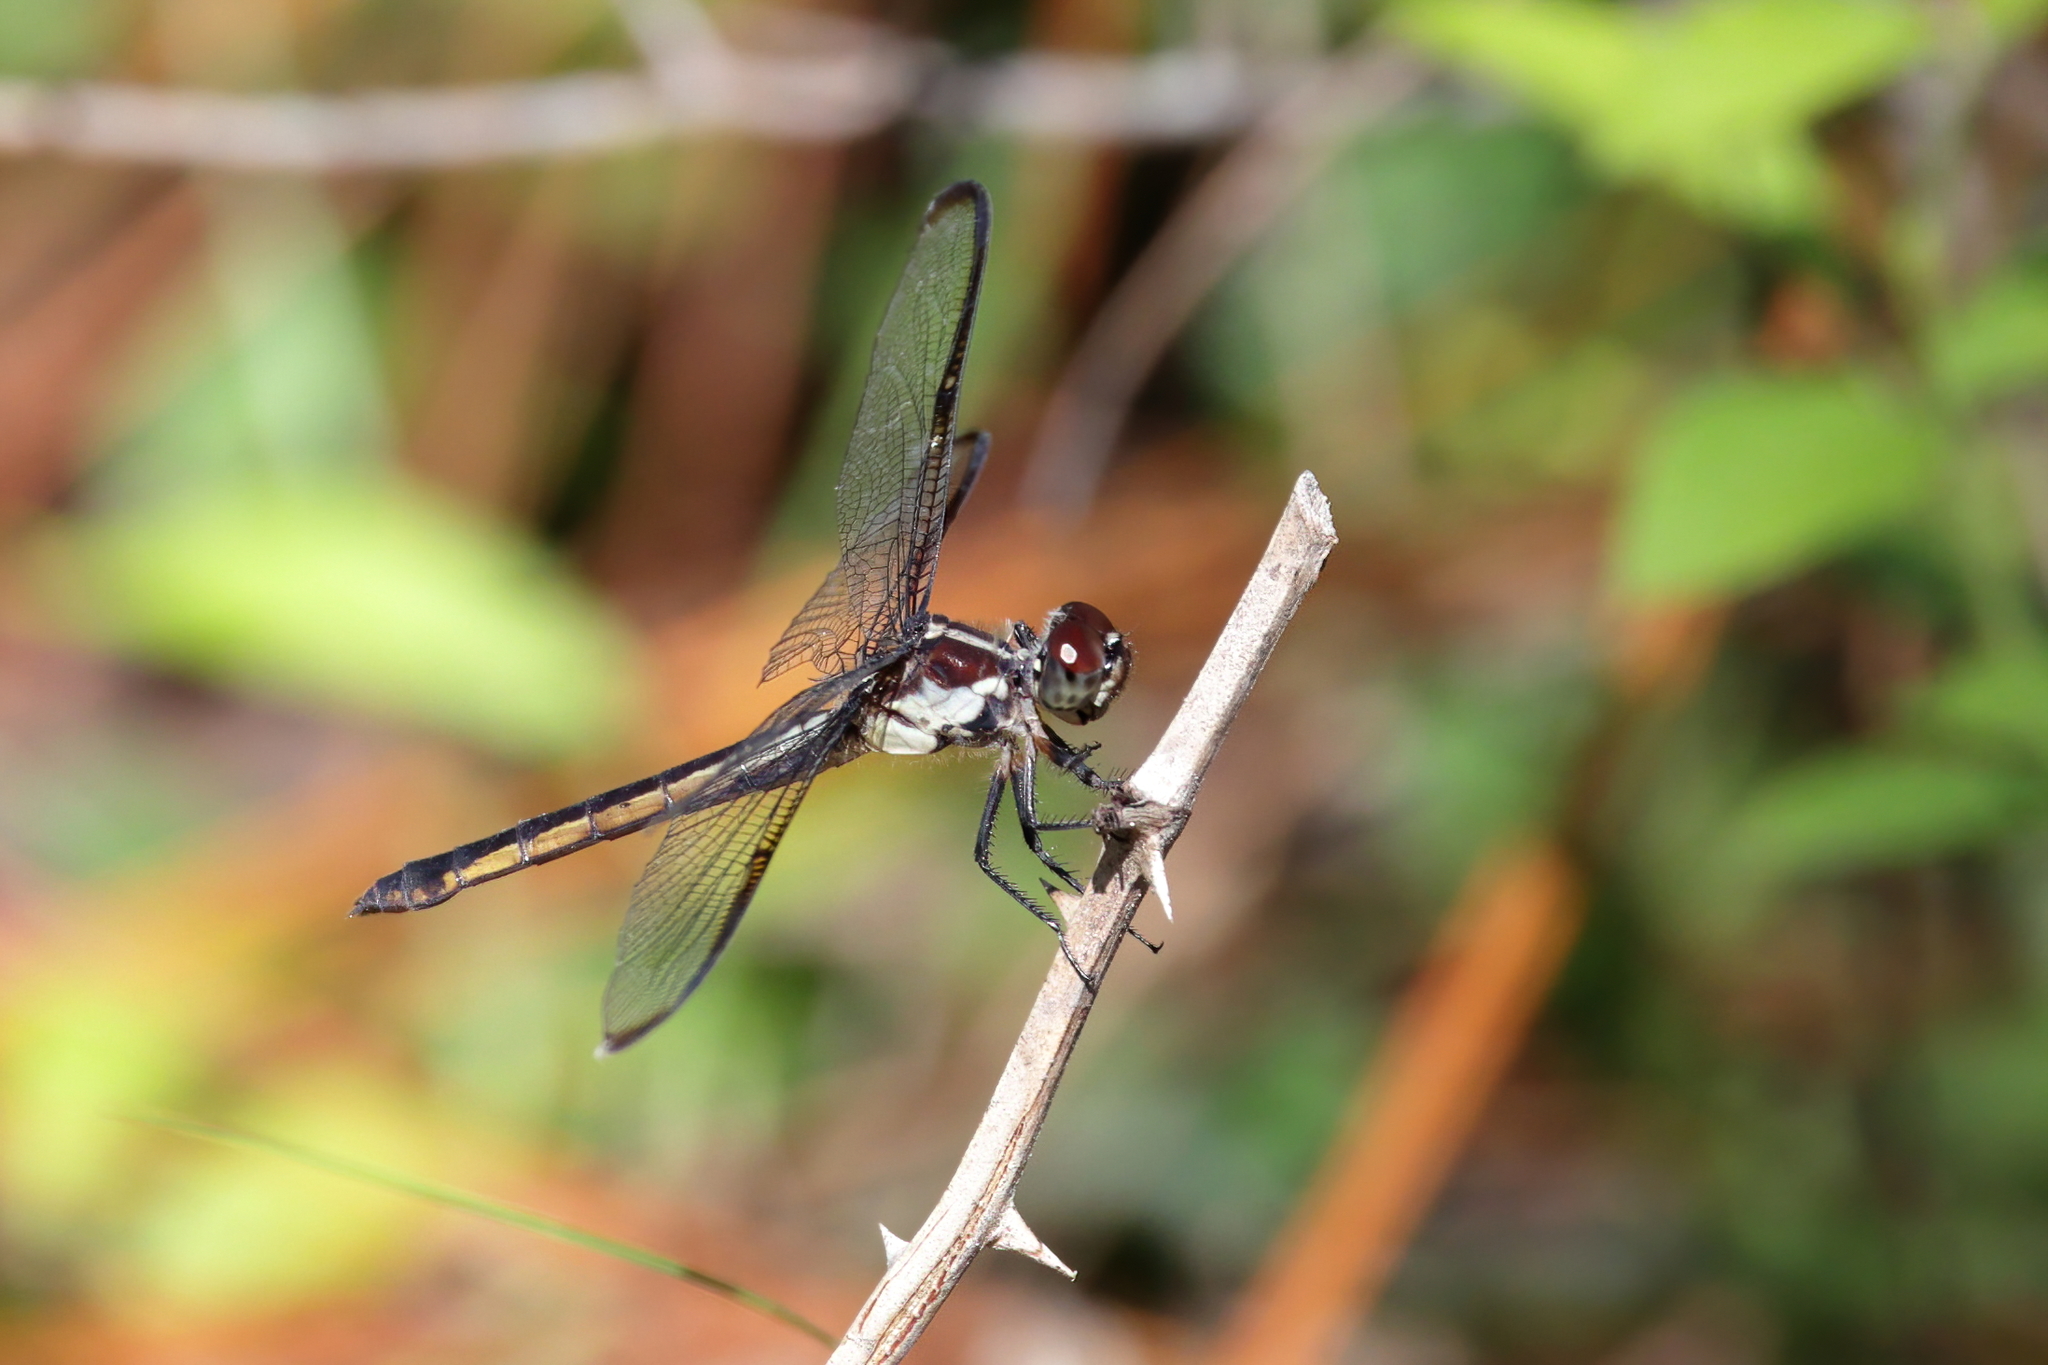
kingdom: Animalia
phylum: Arthropoda
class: Insecta
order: Odonata
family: Libellulidae
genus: Libellula
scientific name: Libellula incesta
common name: Slaty skimmer
